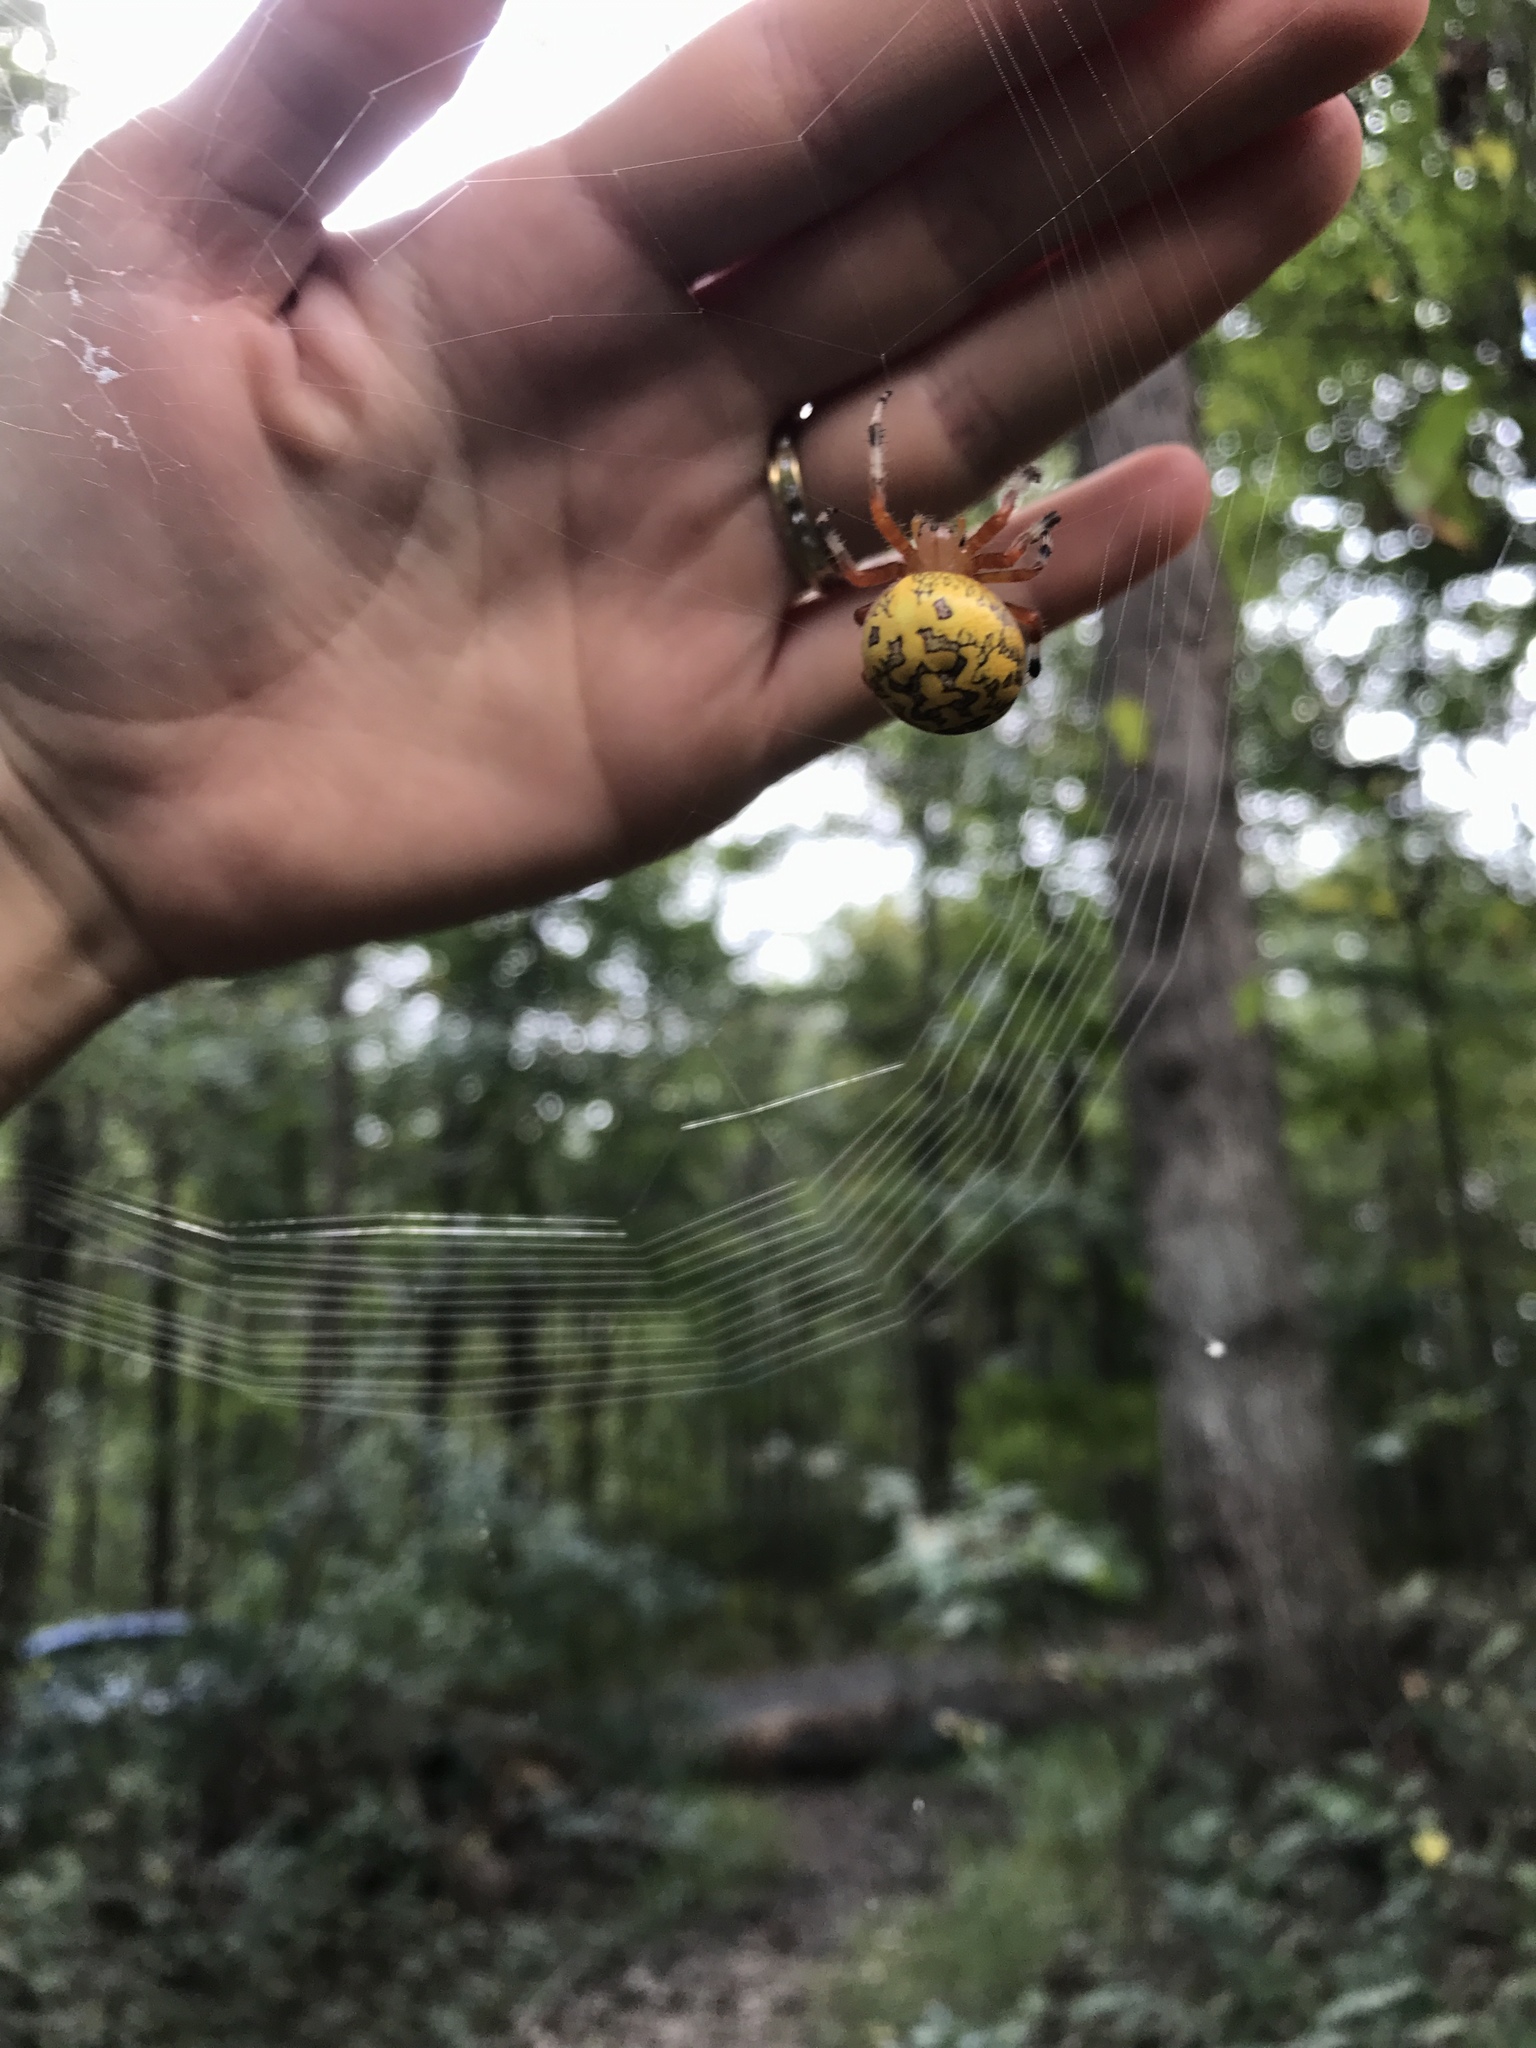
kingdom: Animalia
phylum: Arthropoda
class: Arachnida
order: Araneae
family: Araneidae
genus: Araneus
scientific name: Araneus marmoreus
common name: Marbled orbweaver
